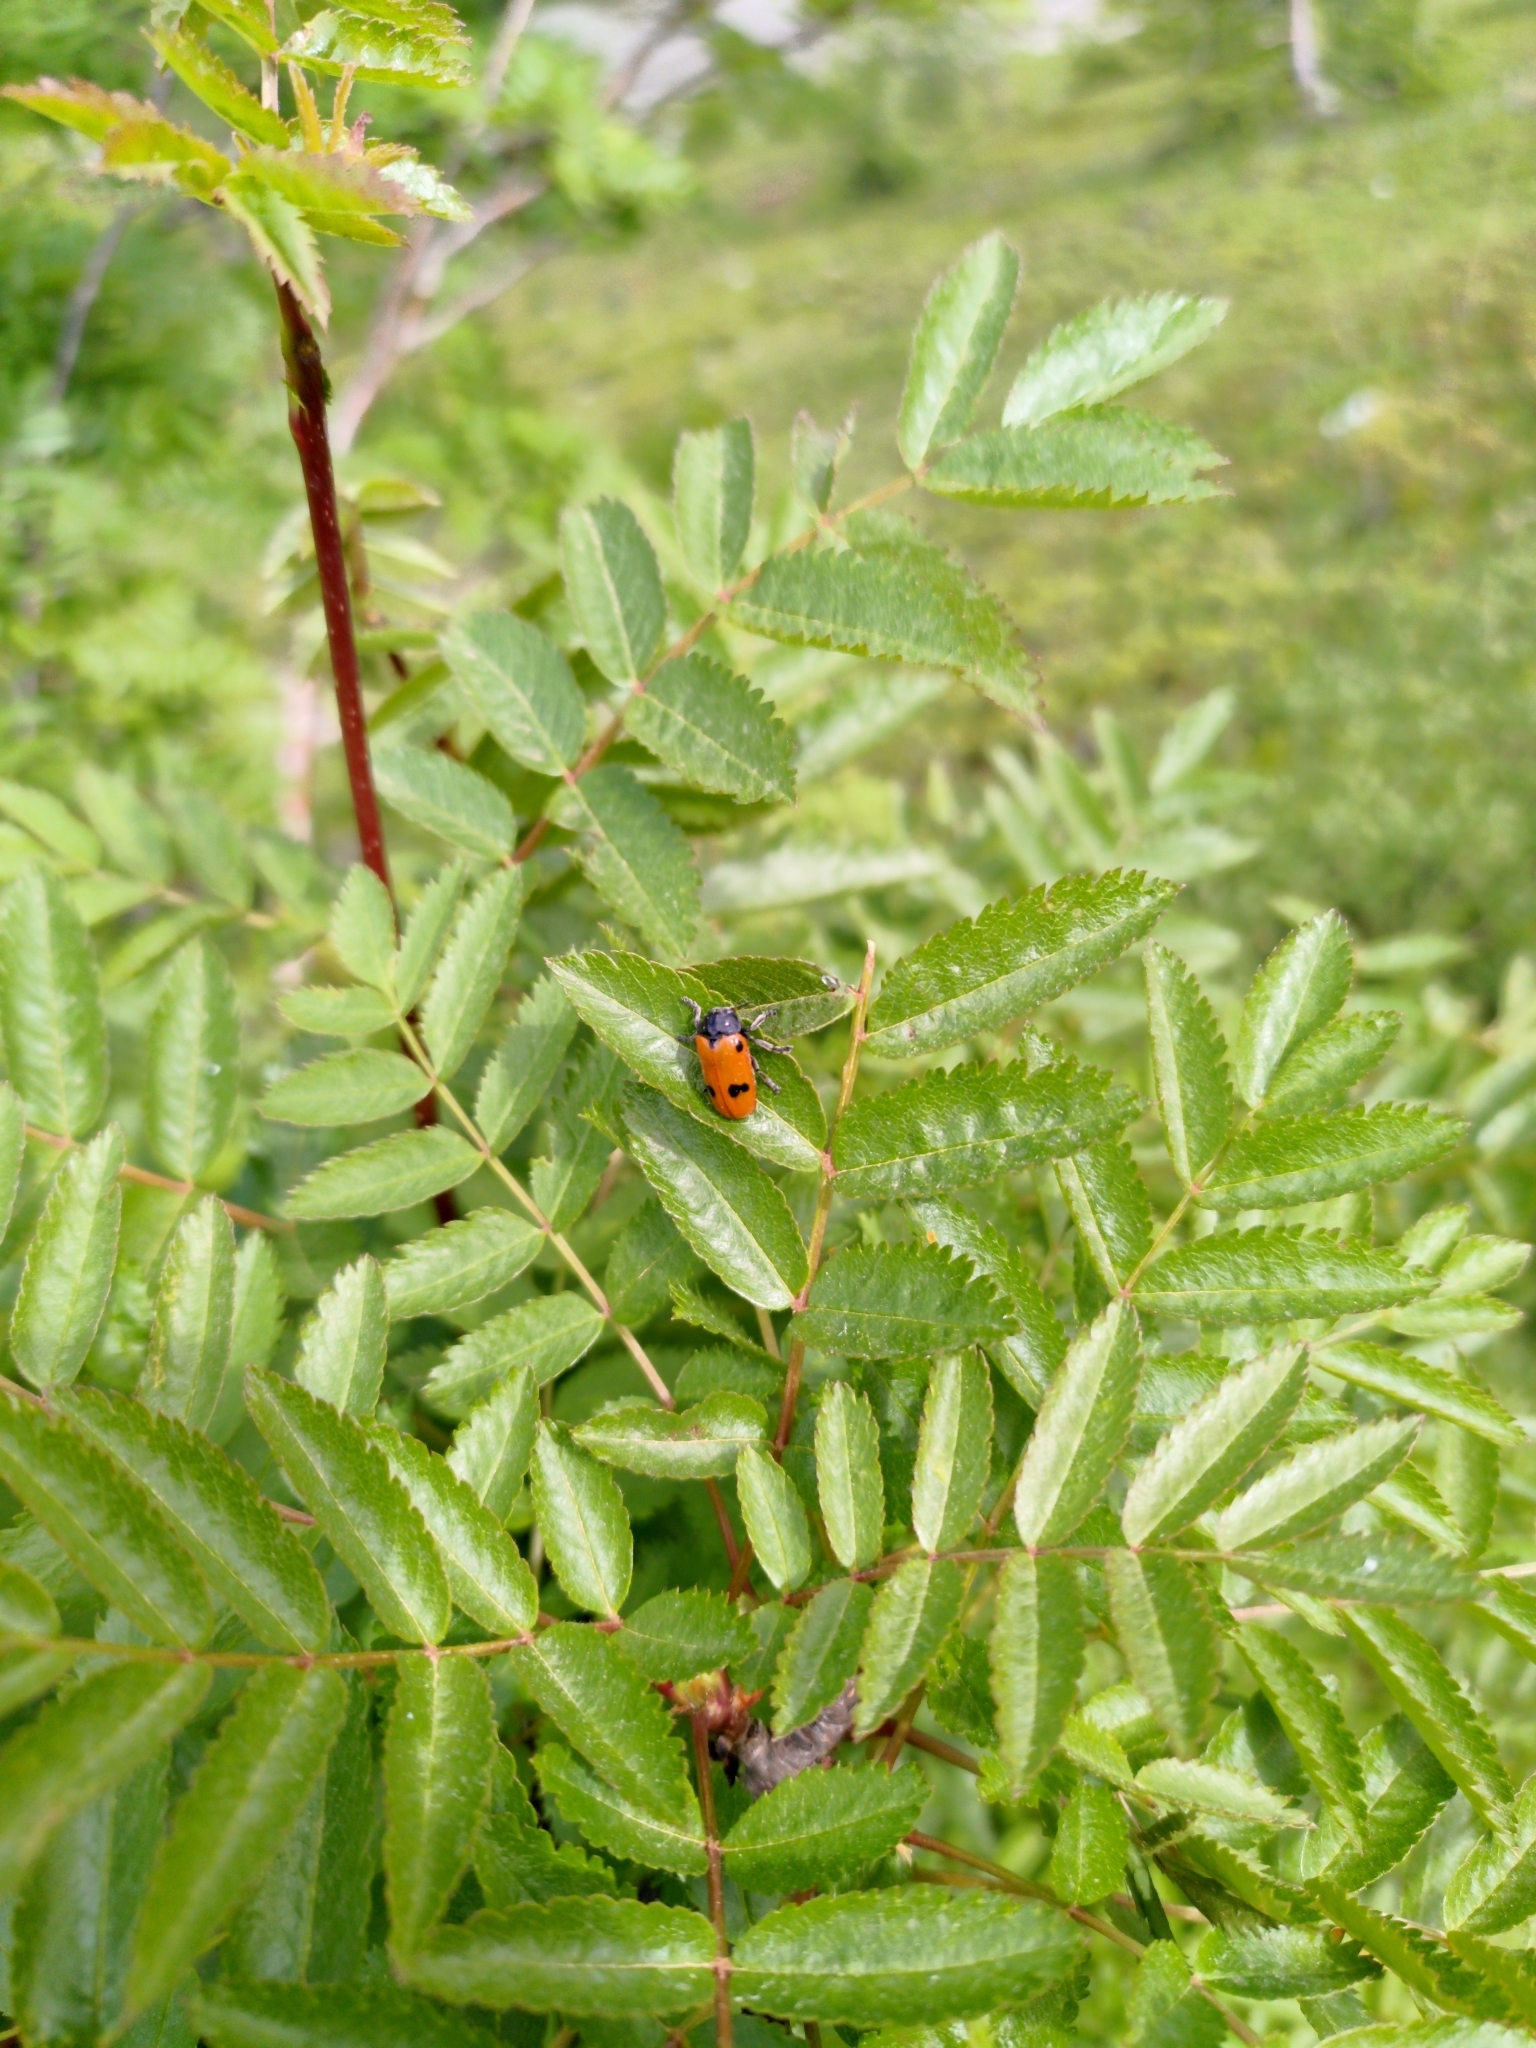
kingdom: Animalia
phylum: Arthropoda
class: Insecta
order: Coleoptera
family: Chrysomelidae
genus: Clytra
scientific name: Clytra quadripunctata
